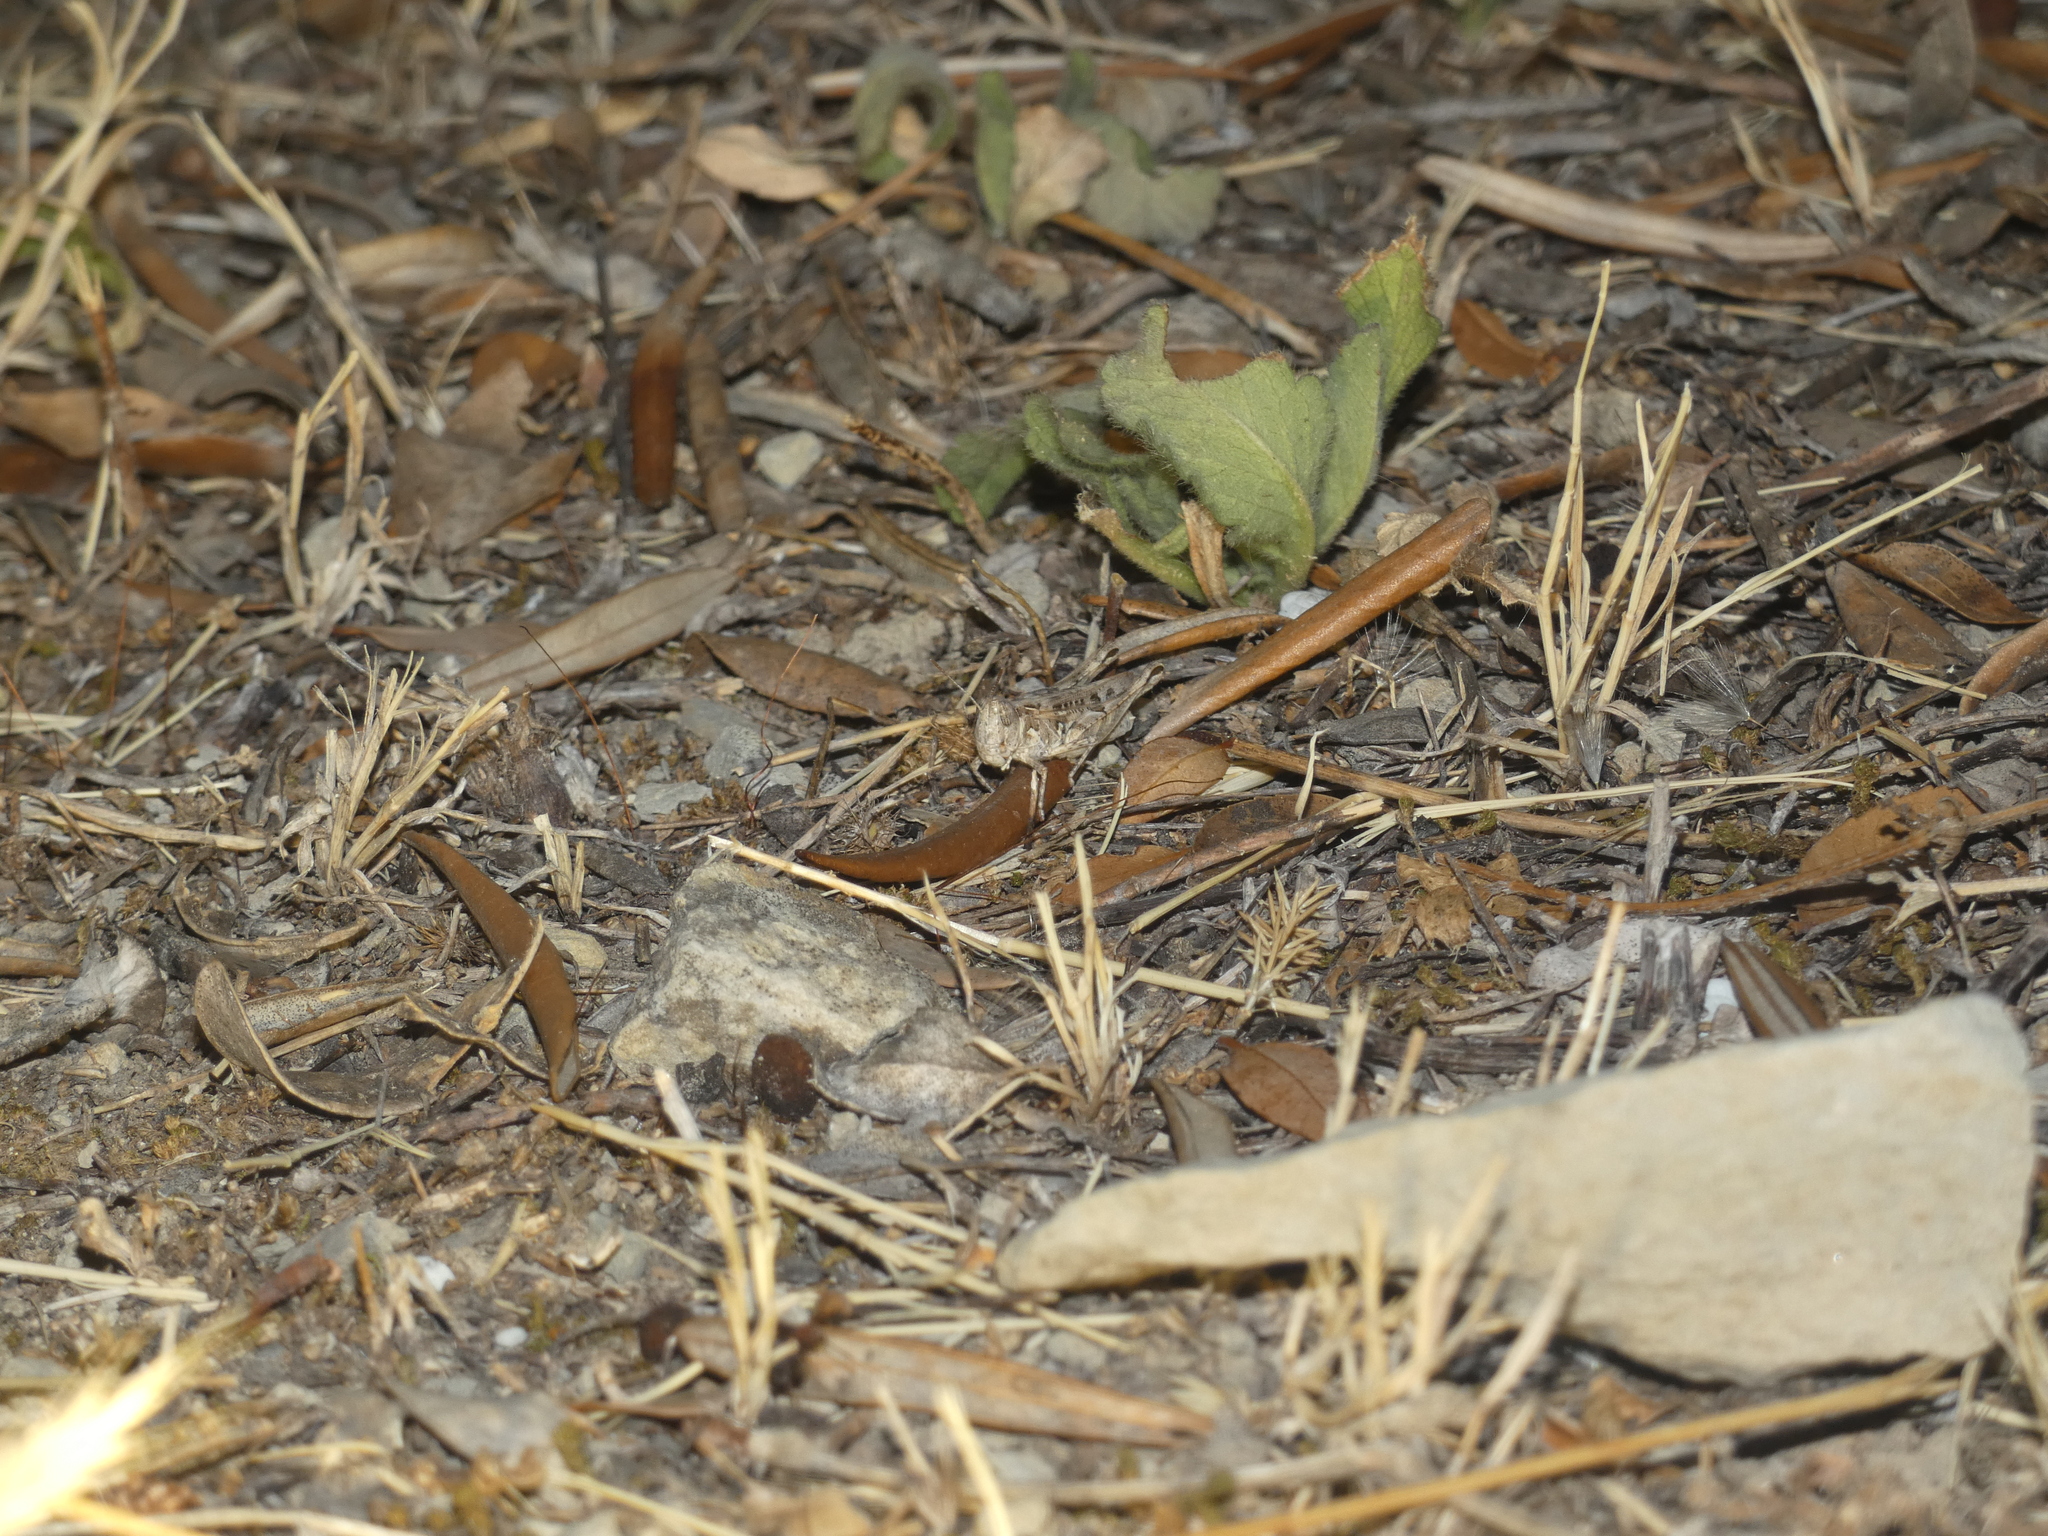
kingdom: Animalia
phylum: Arthropoda
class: Insecta
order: Orthoptera
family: Acrididae
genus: Dociostaurus
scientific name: Dociostaurus jagoi
